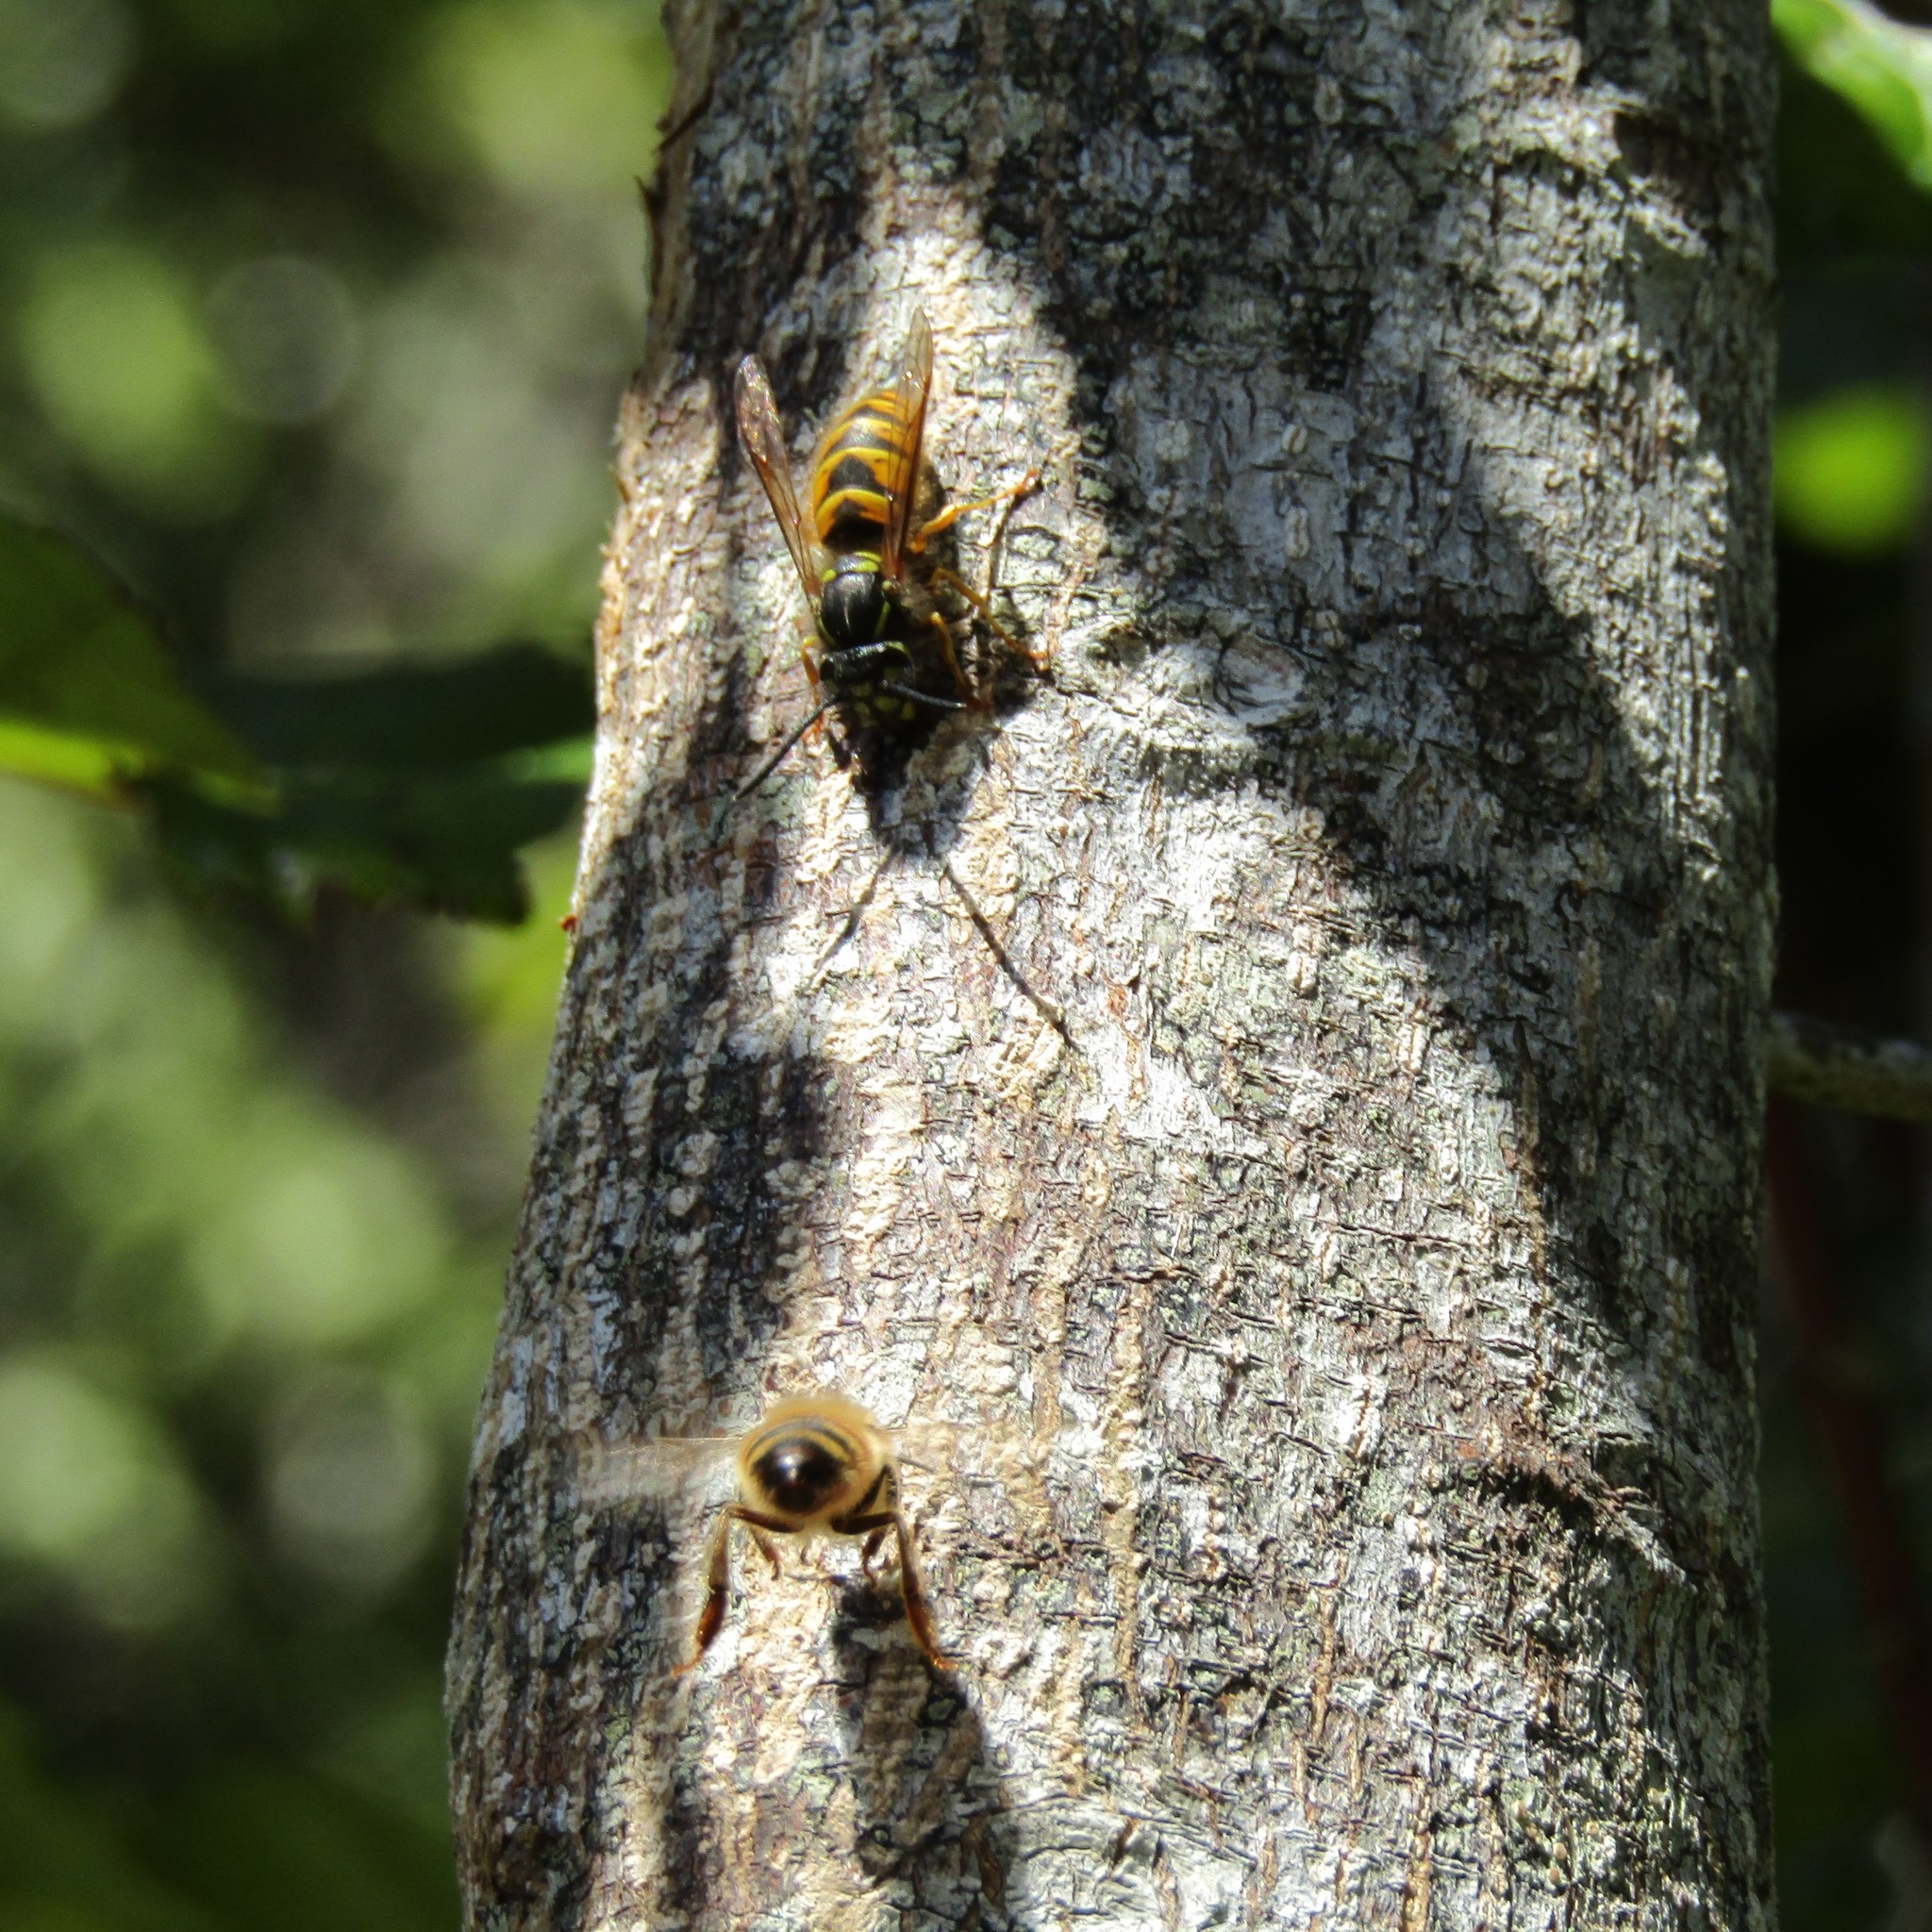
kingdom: Animalia
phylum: Arthropoda
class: Insecta
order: Hymenoptera
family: Vespidae
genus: Vespula
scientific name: Vespula vulgaris
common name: Common wasp
